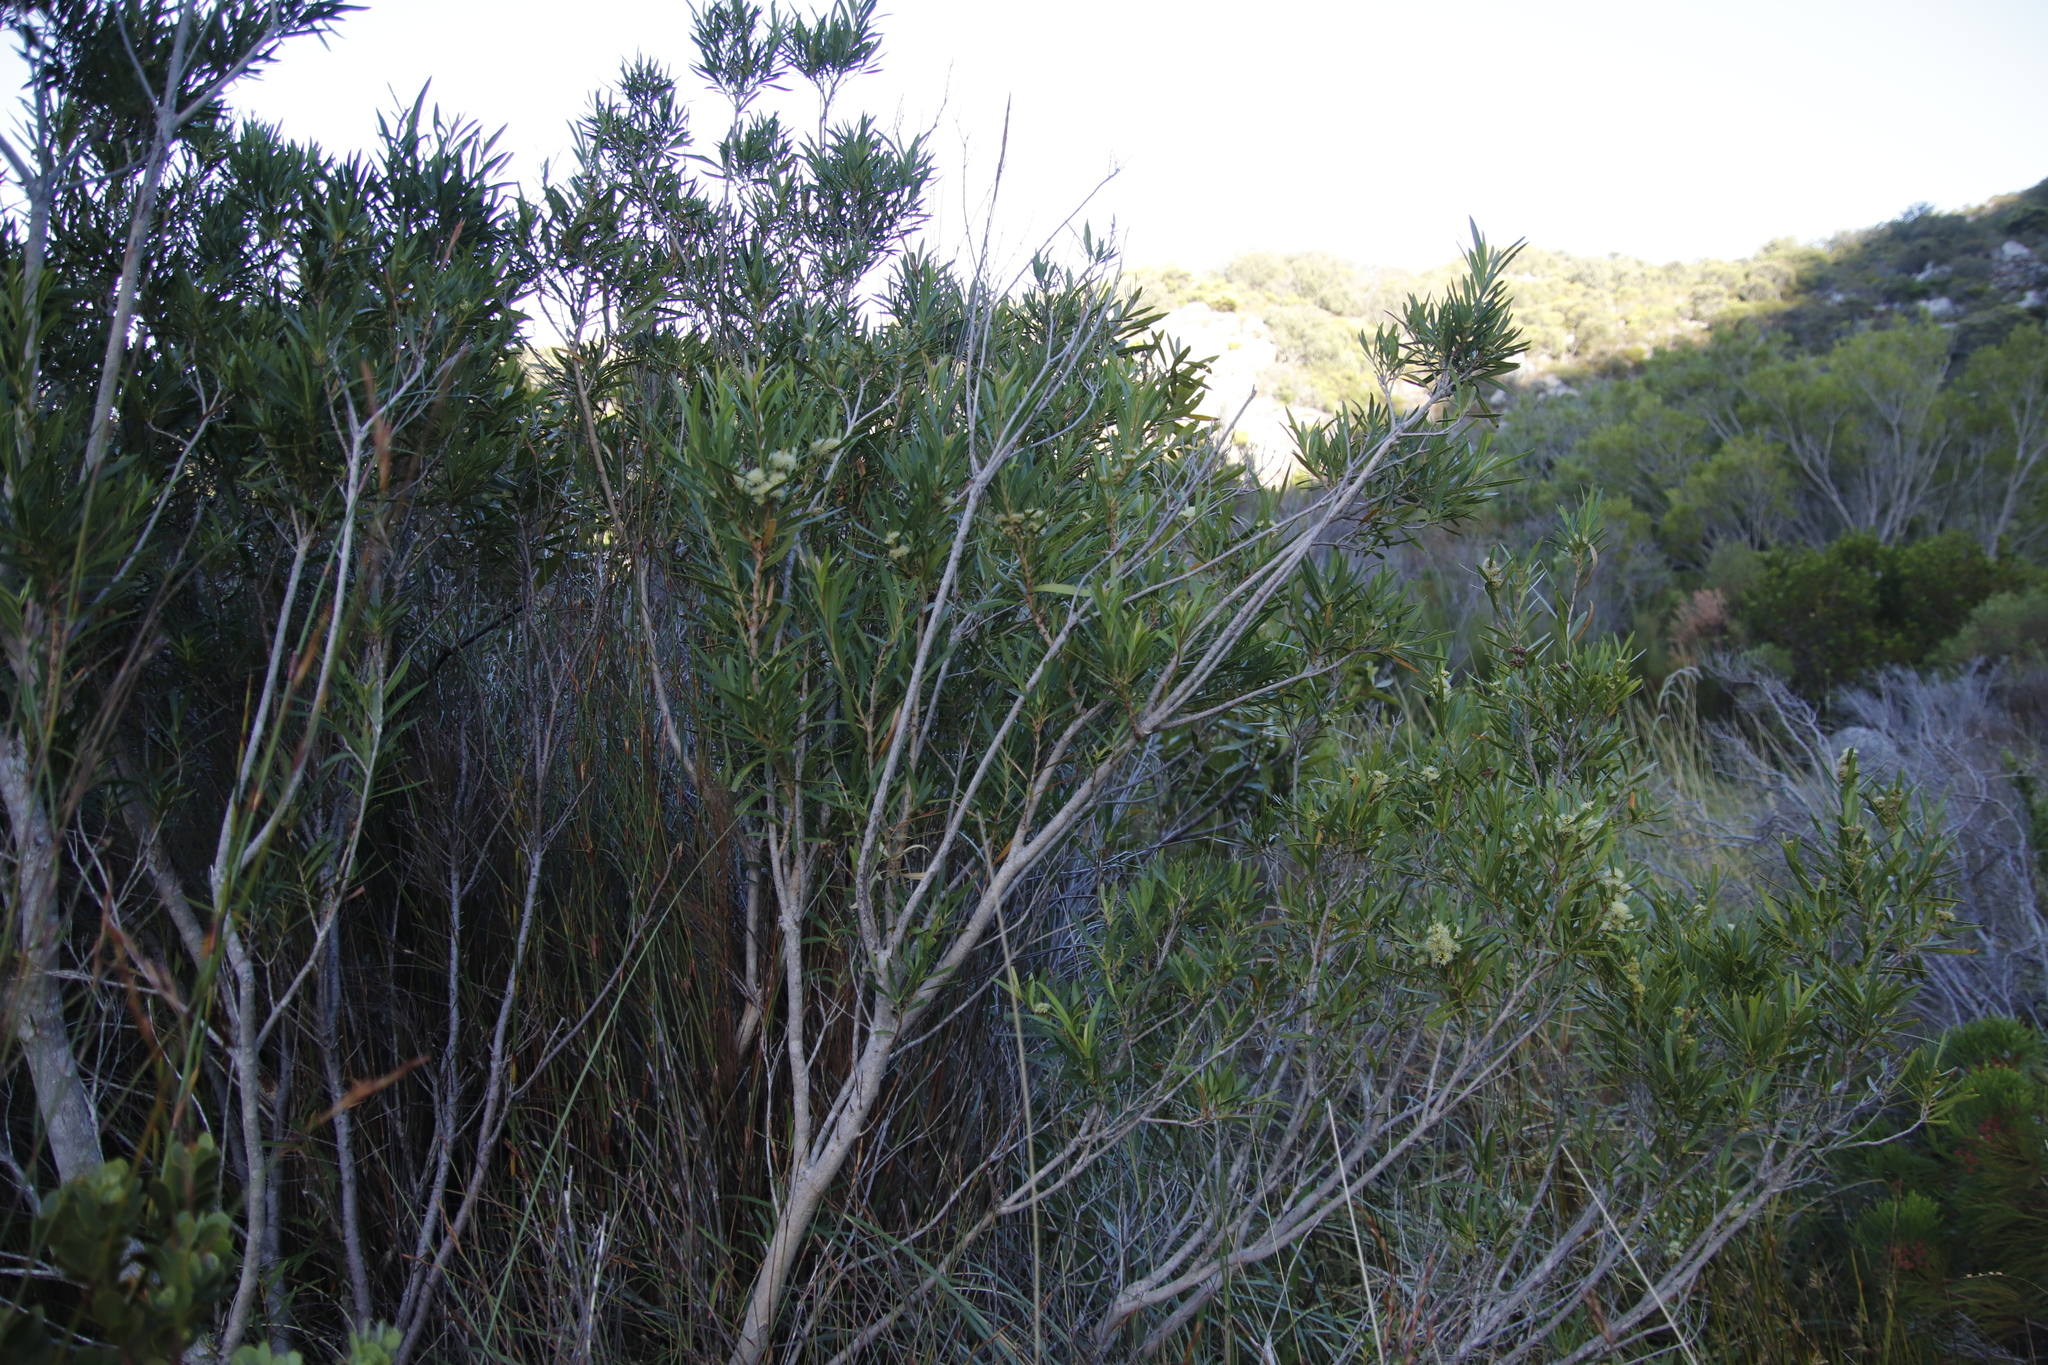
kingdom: Plantae
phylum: Tracheophyta
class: Magnoliopsida
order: Myrtales
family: Myrtaceae
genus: Callistemon
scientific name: Callistemon lanceolatus
